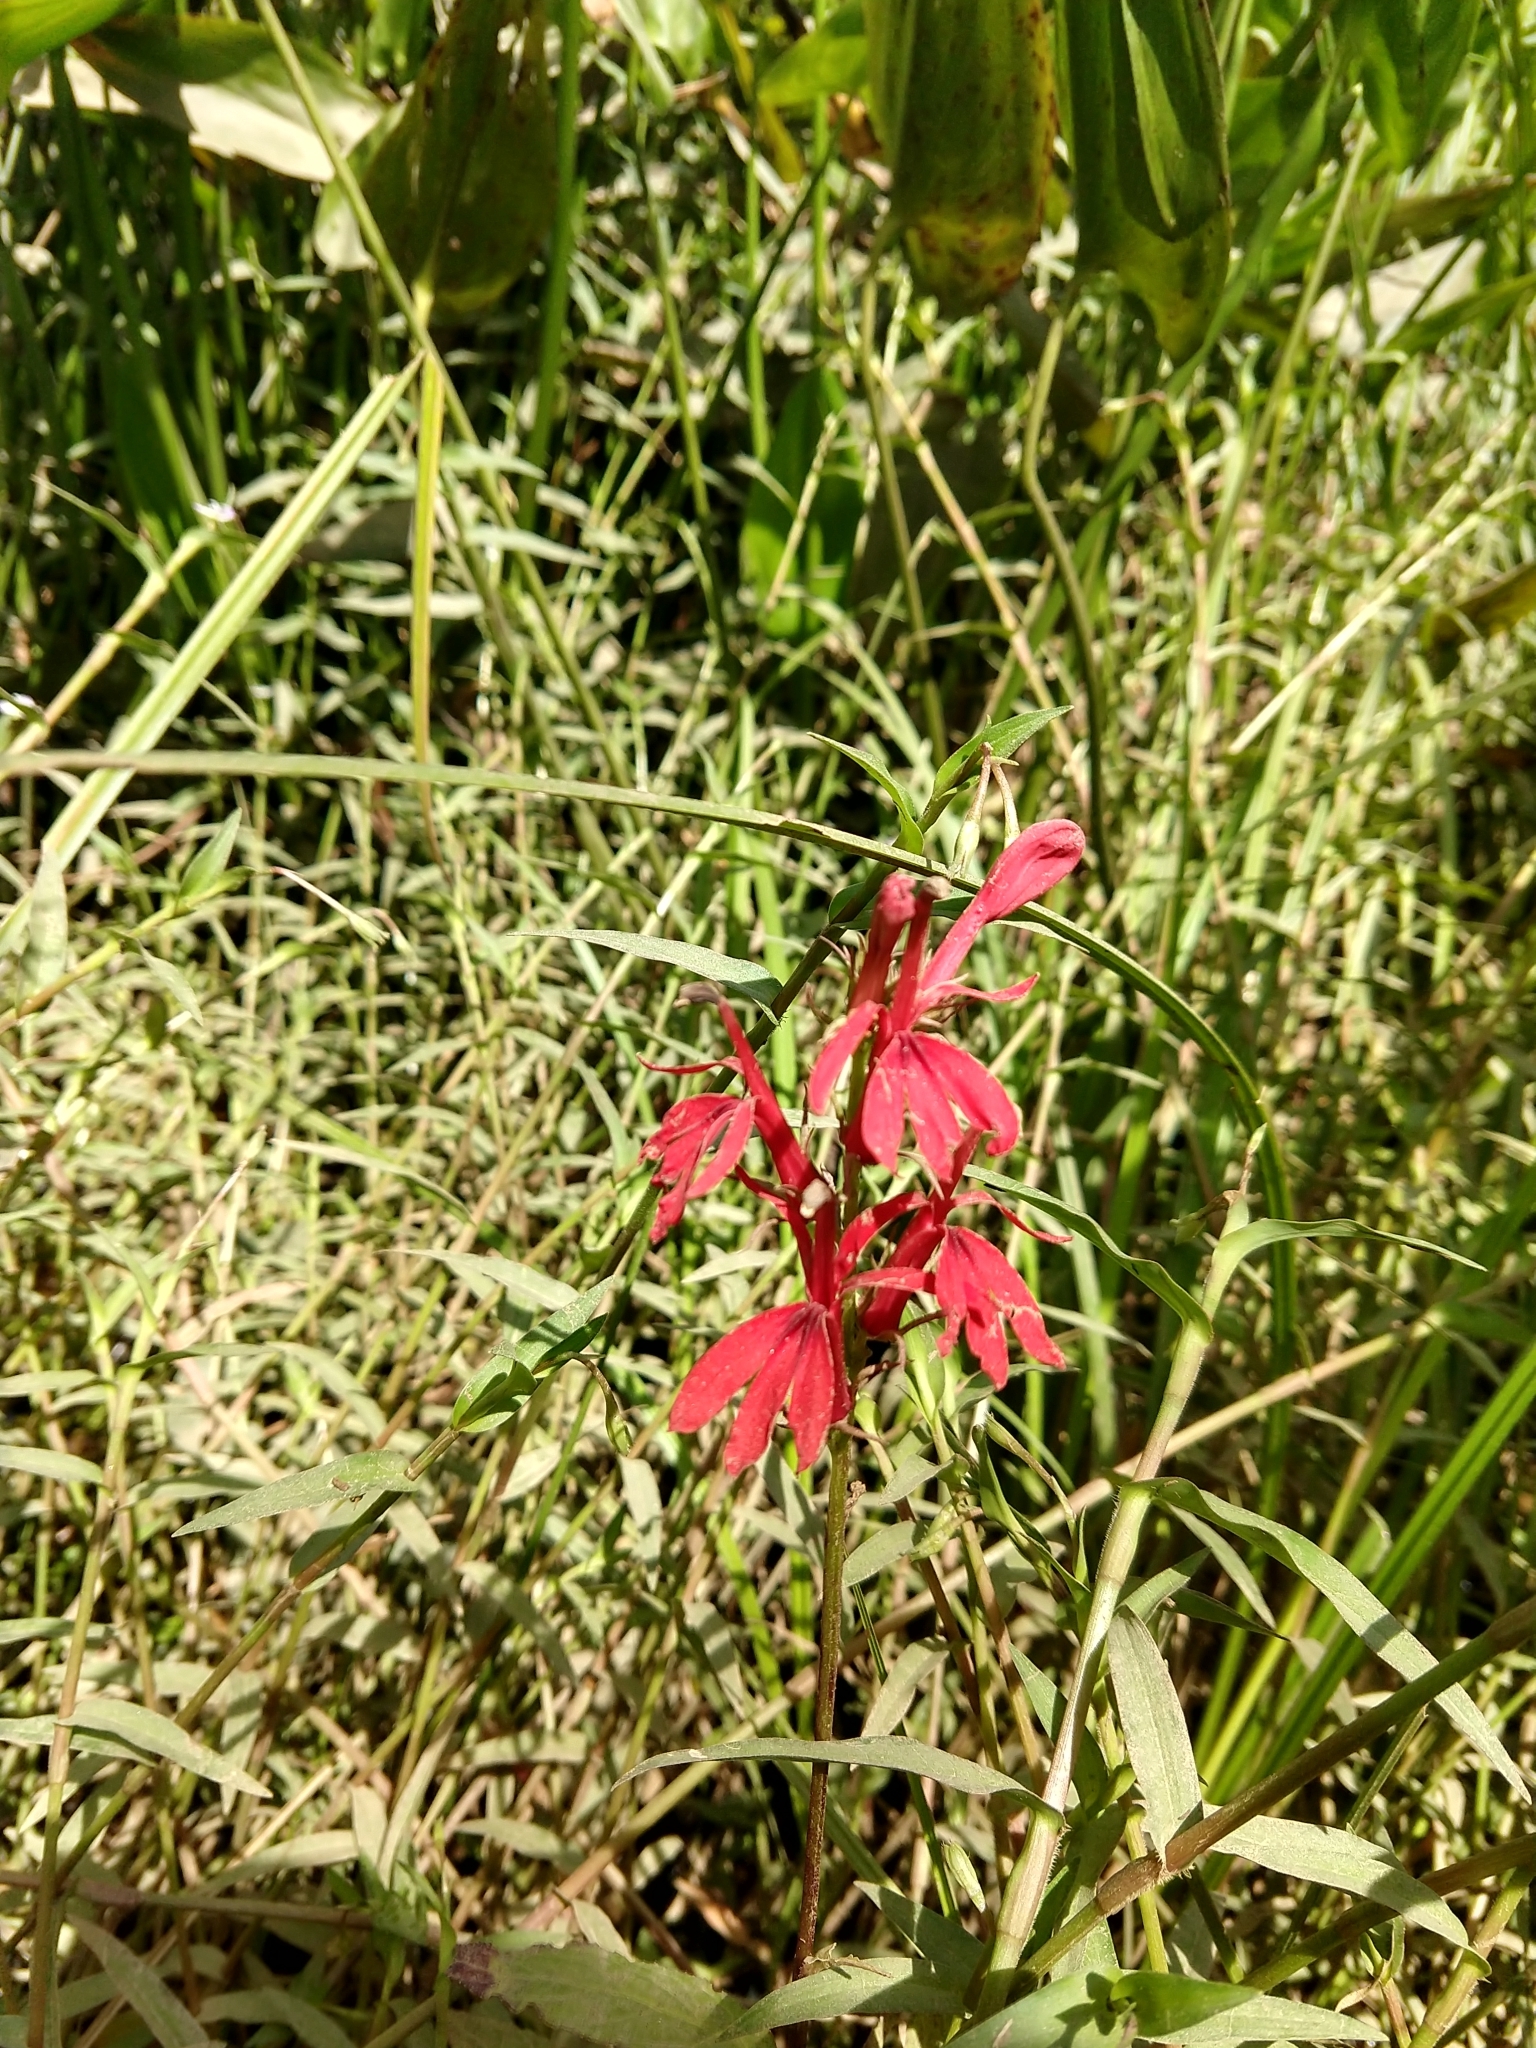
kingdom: Plantae
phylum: Tracheophyta
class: Magnoliopsida
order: Asterales
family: Campanulaceae
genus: Lobelia
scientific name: Lobelia cardinalis
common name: Cardinal flower
